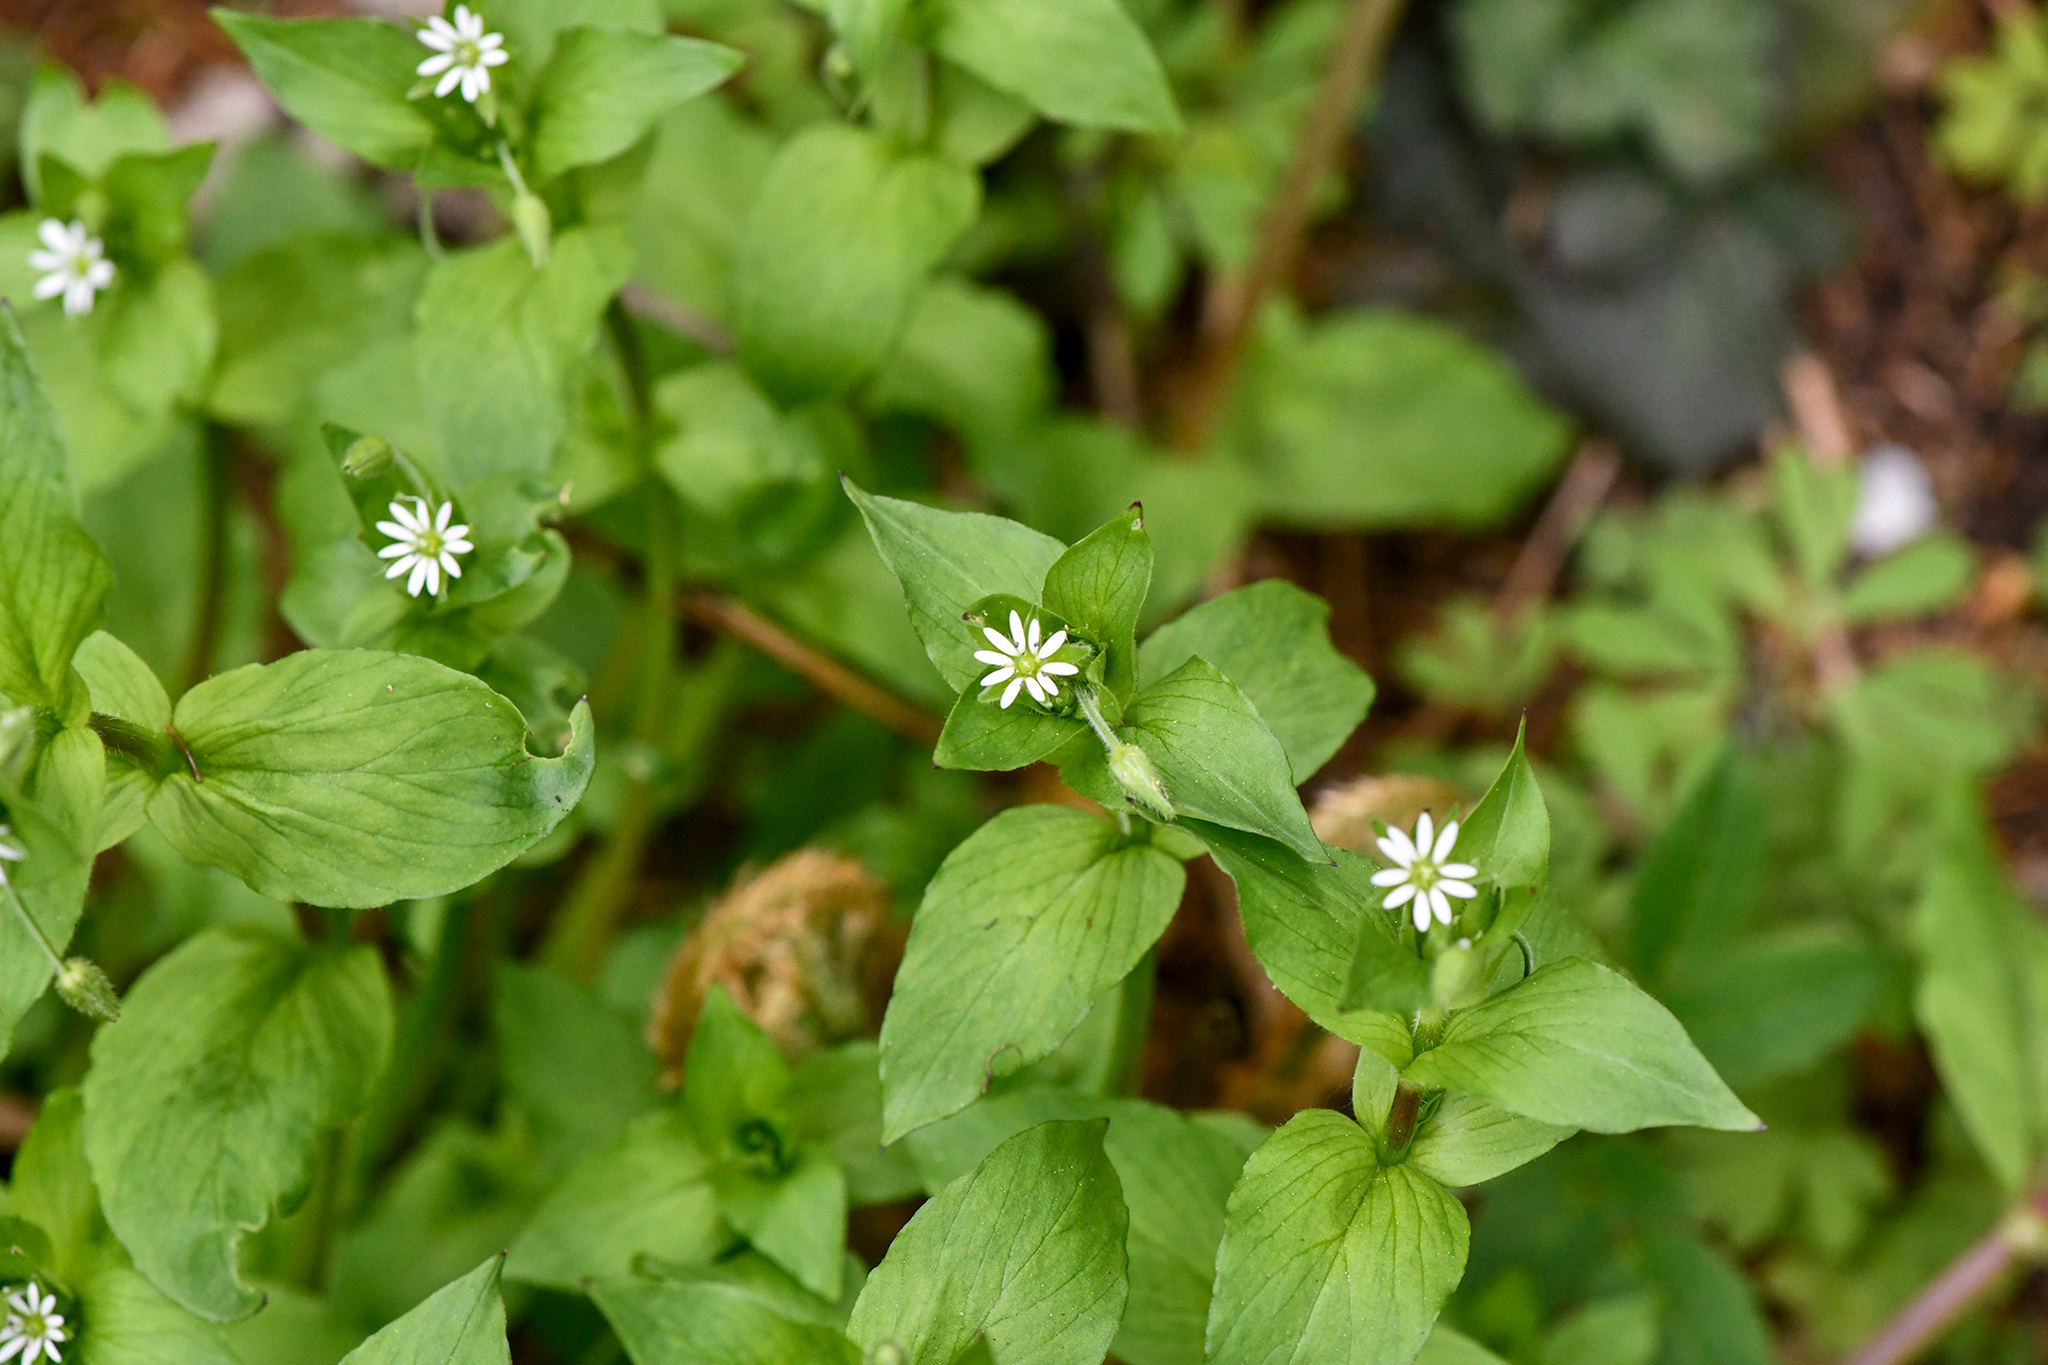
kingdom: Plantae
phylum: Tracheophyta
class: Magnoliopsida
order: Caryophyllales
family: Caryophyllaceae
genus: Stellaria
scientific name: Stellaria
